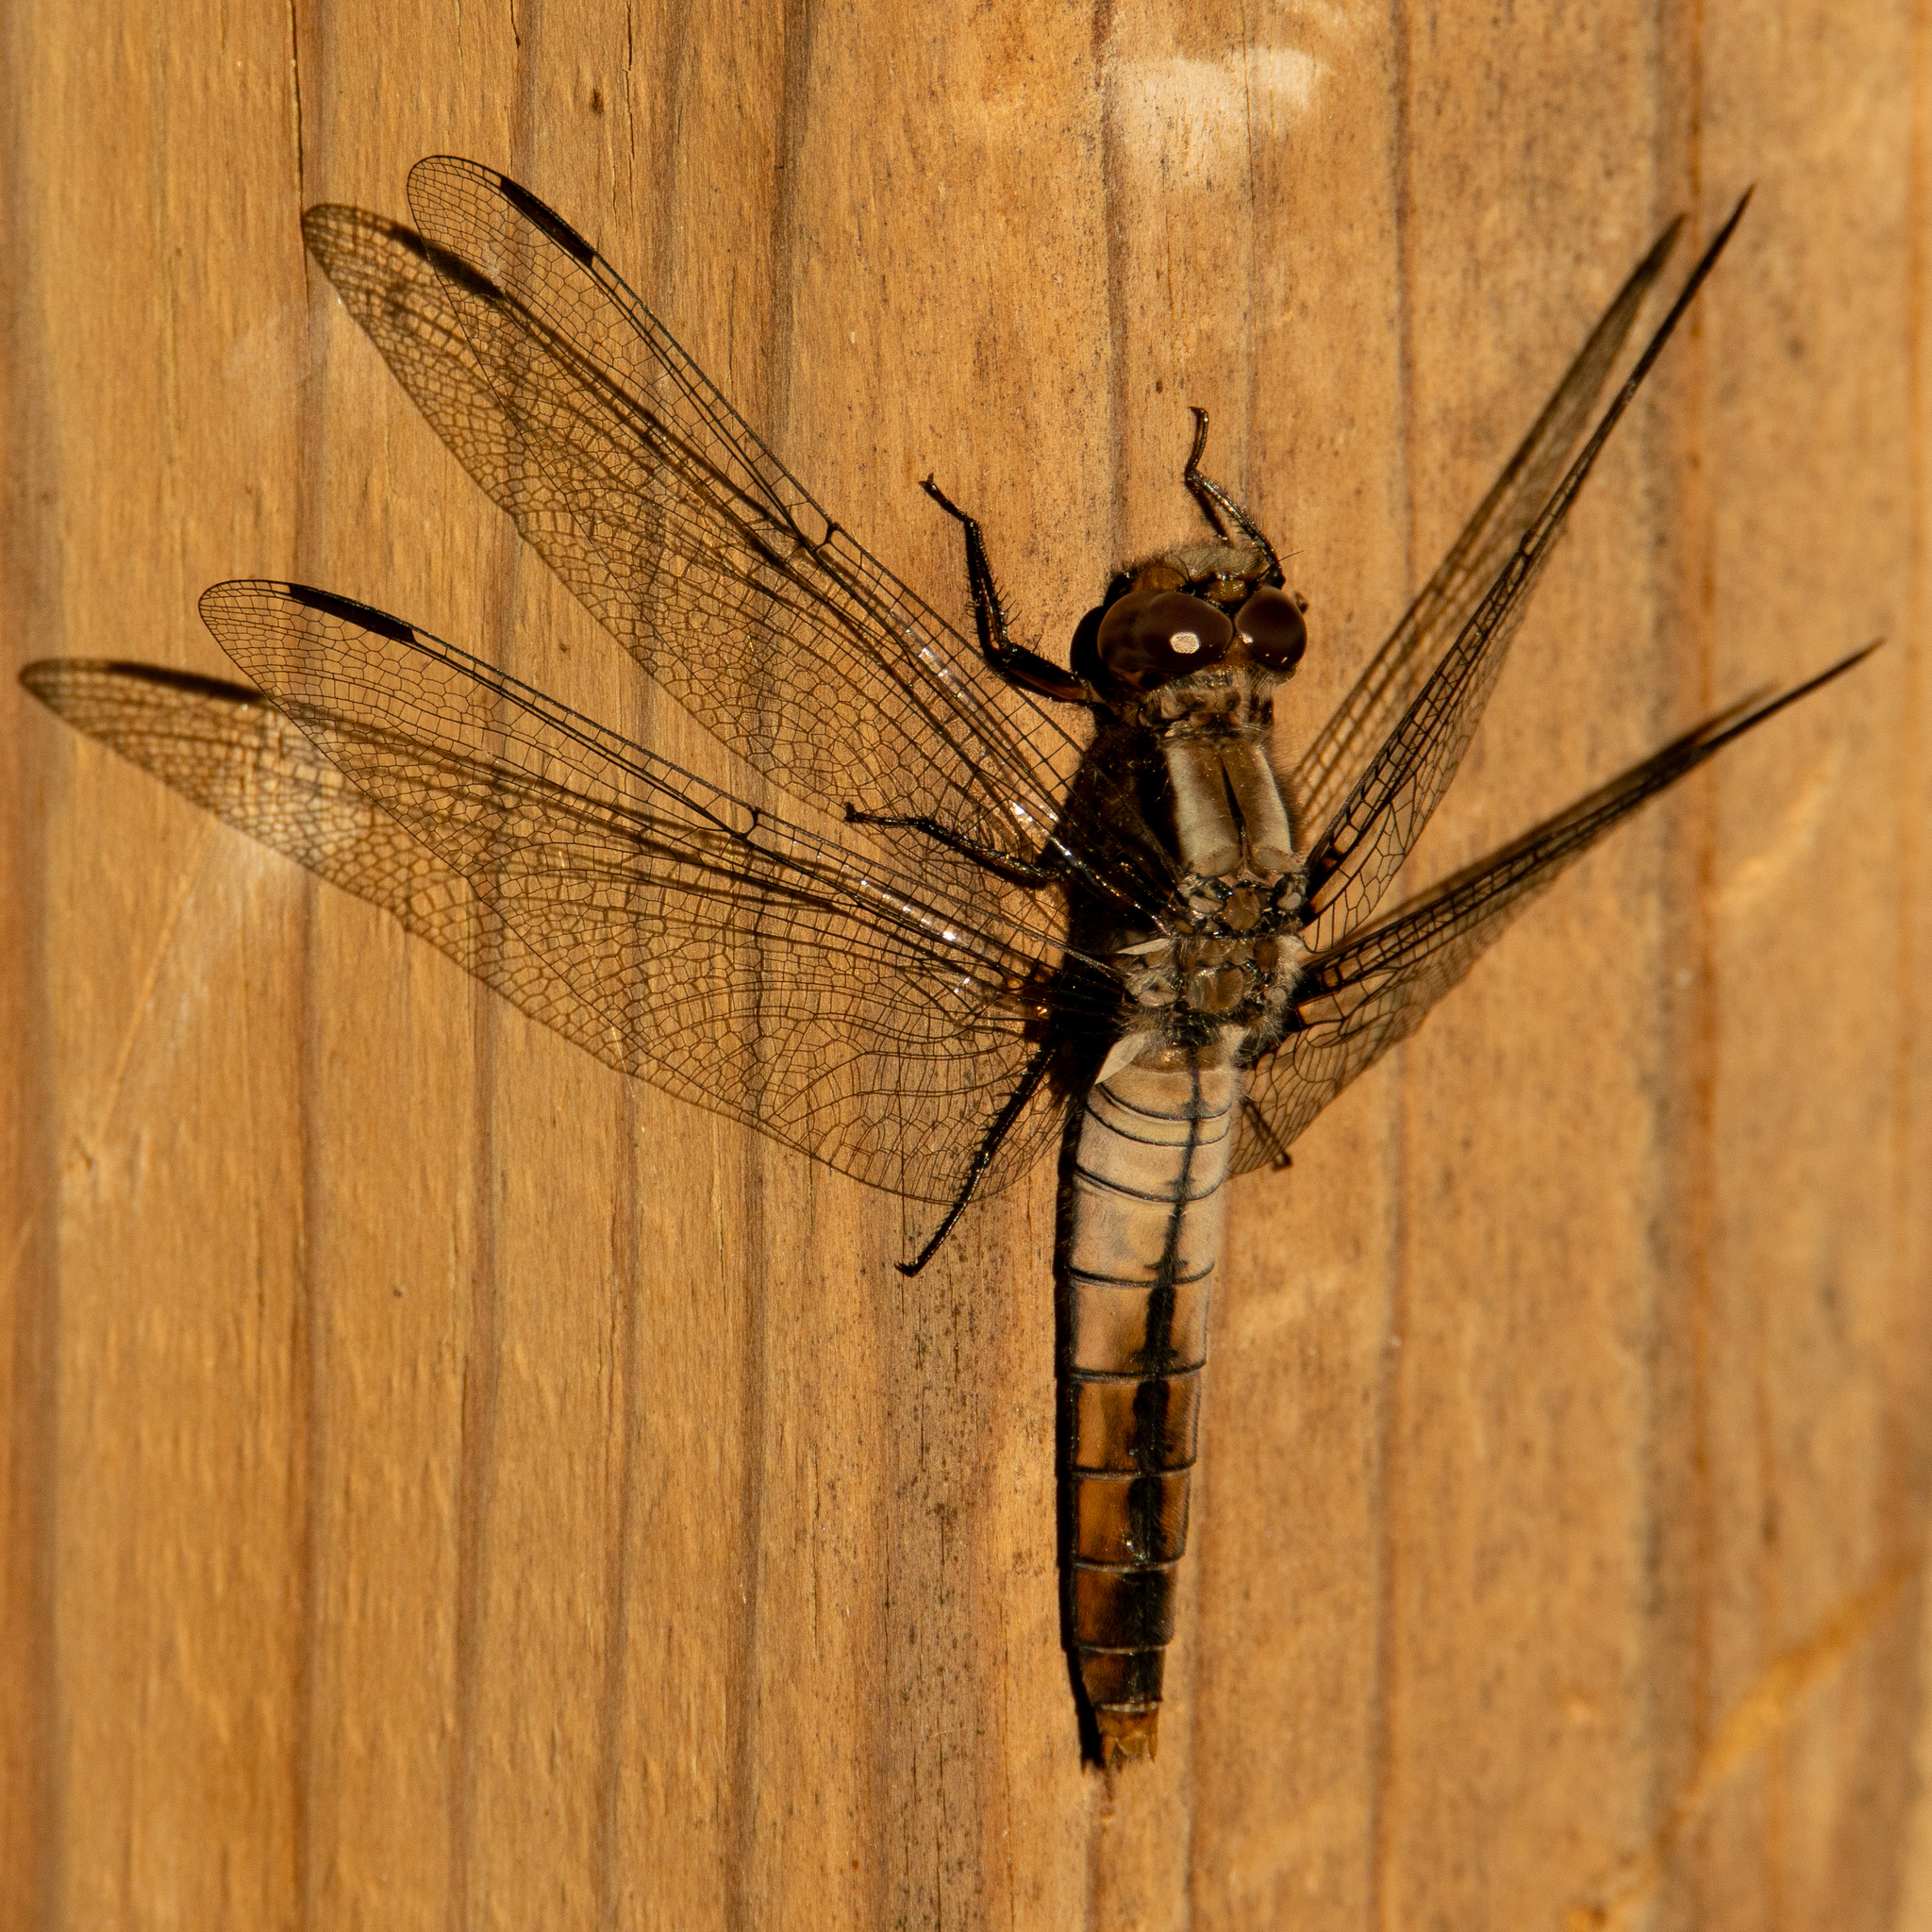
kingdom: Animalia
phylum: Arthropoda
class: Insecta
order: Odonata
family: Libellulidae
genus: Ladona
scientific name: Ladona julia
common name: Chalk-fronted corporal
